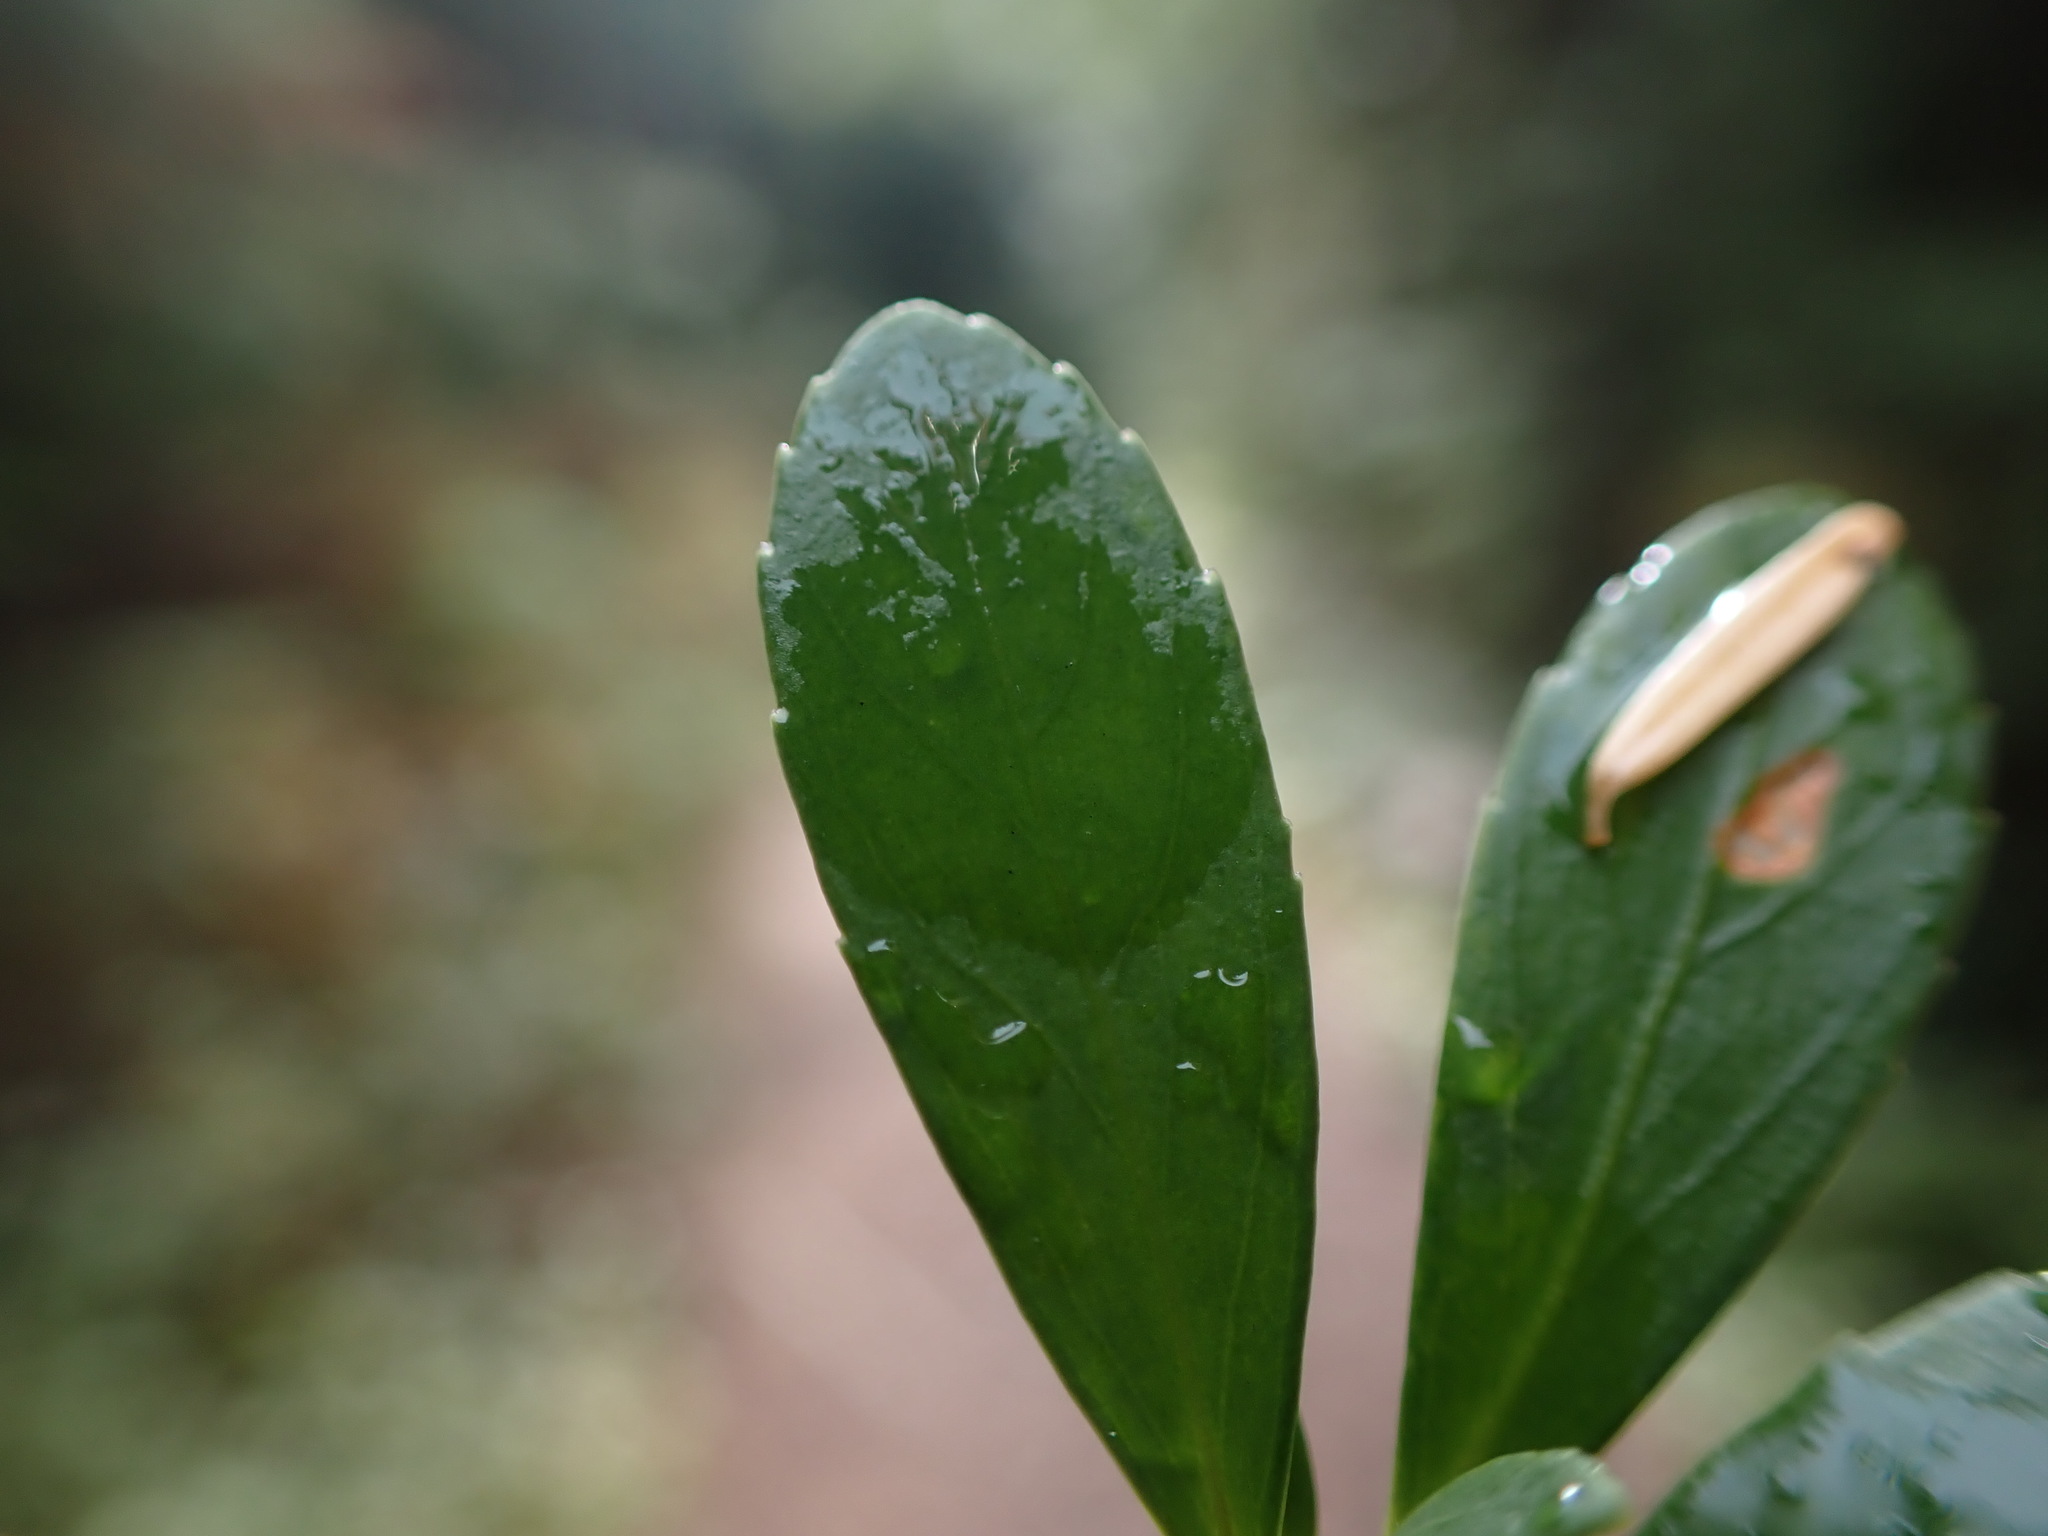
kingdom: Plantae
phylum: Tracheophyta
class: Magnoliopsida
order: Celastrales
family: Celastraceae
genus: Paxistima
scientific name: Paxistima myrsinites
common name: Mountain-lover
